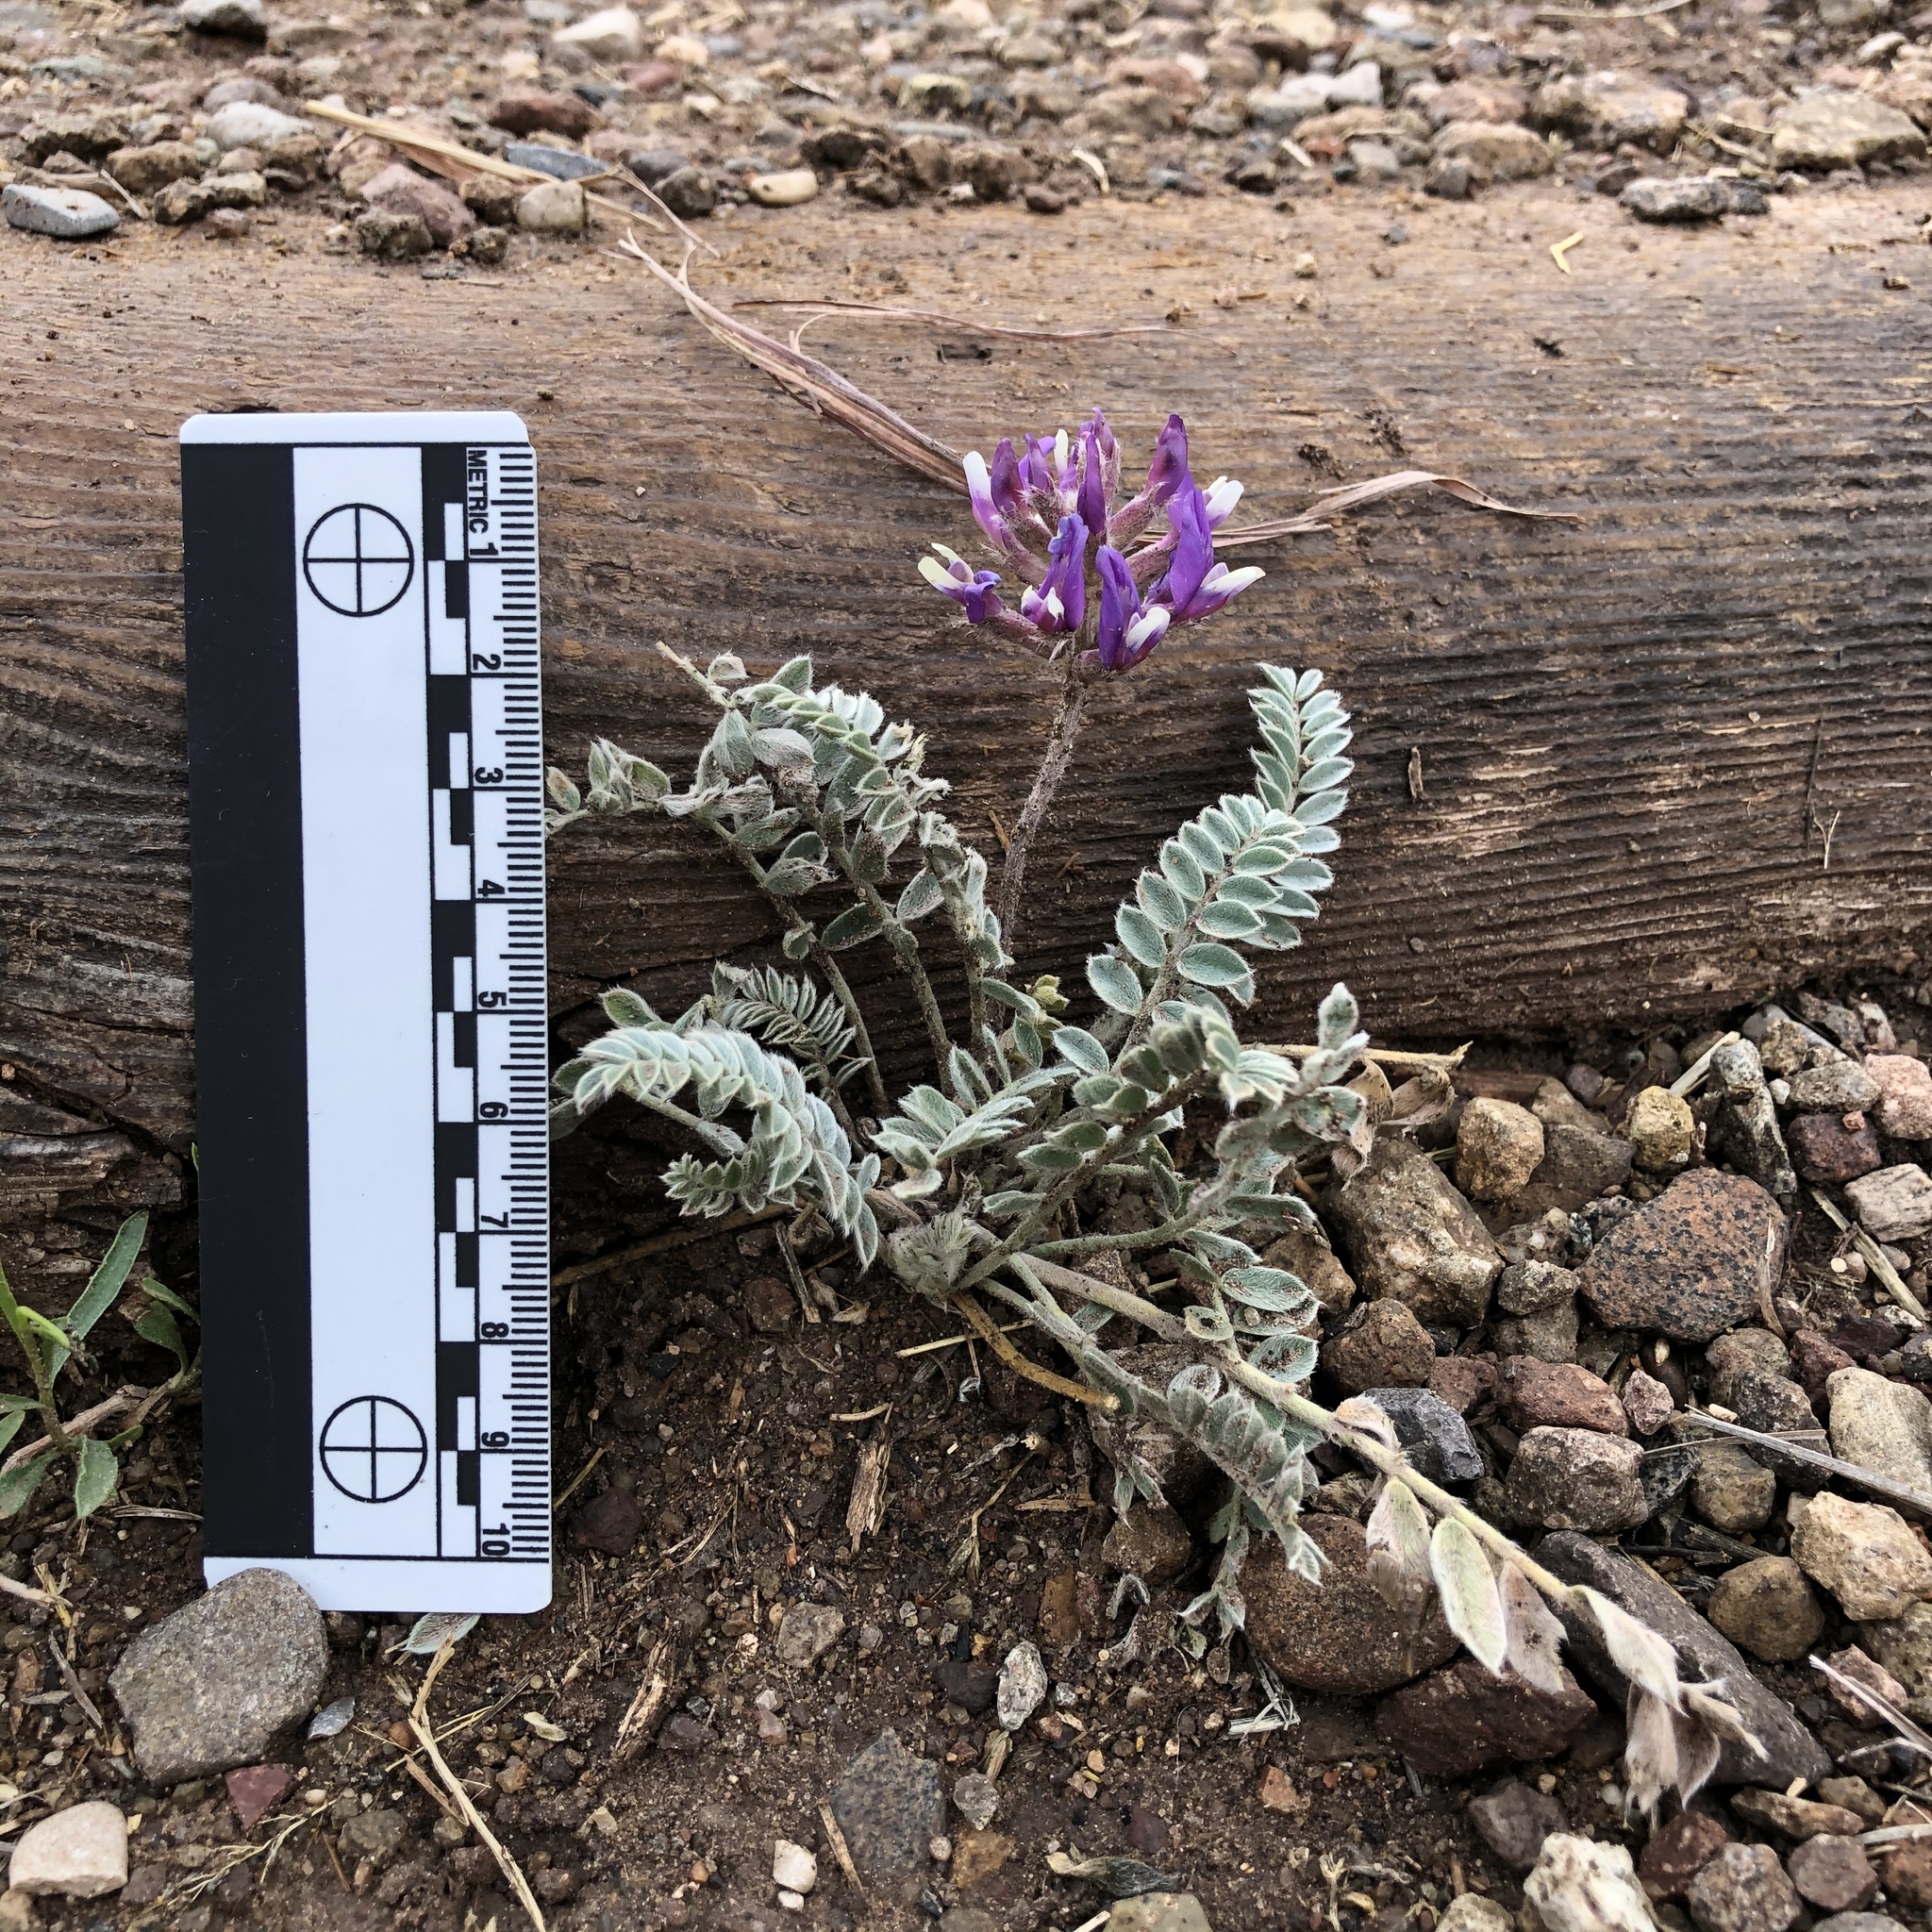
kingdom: Plantae
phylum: Tracheophyta
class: Magnoliopsida
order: Fabales
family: Fabaceae
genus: Astragalus
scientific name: Astragalus mollissimus
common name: Woolly locoweed
